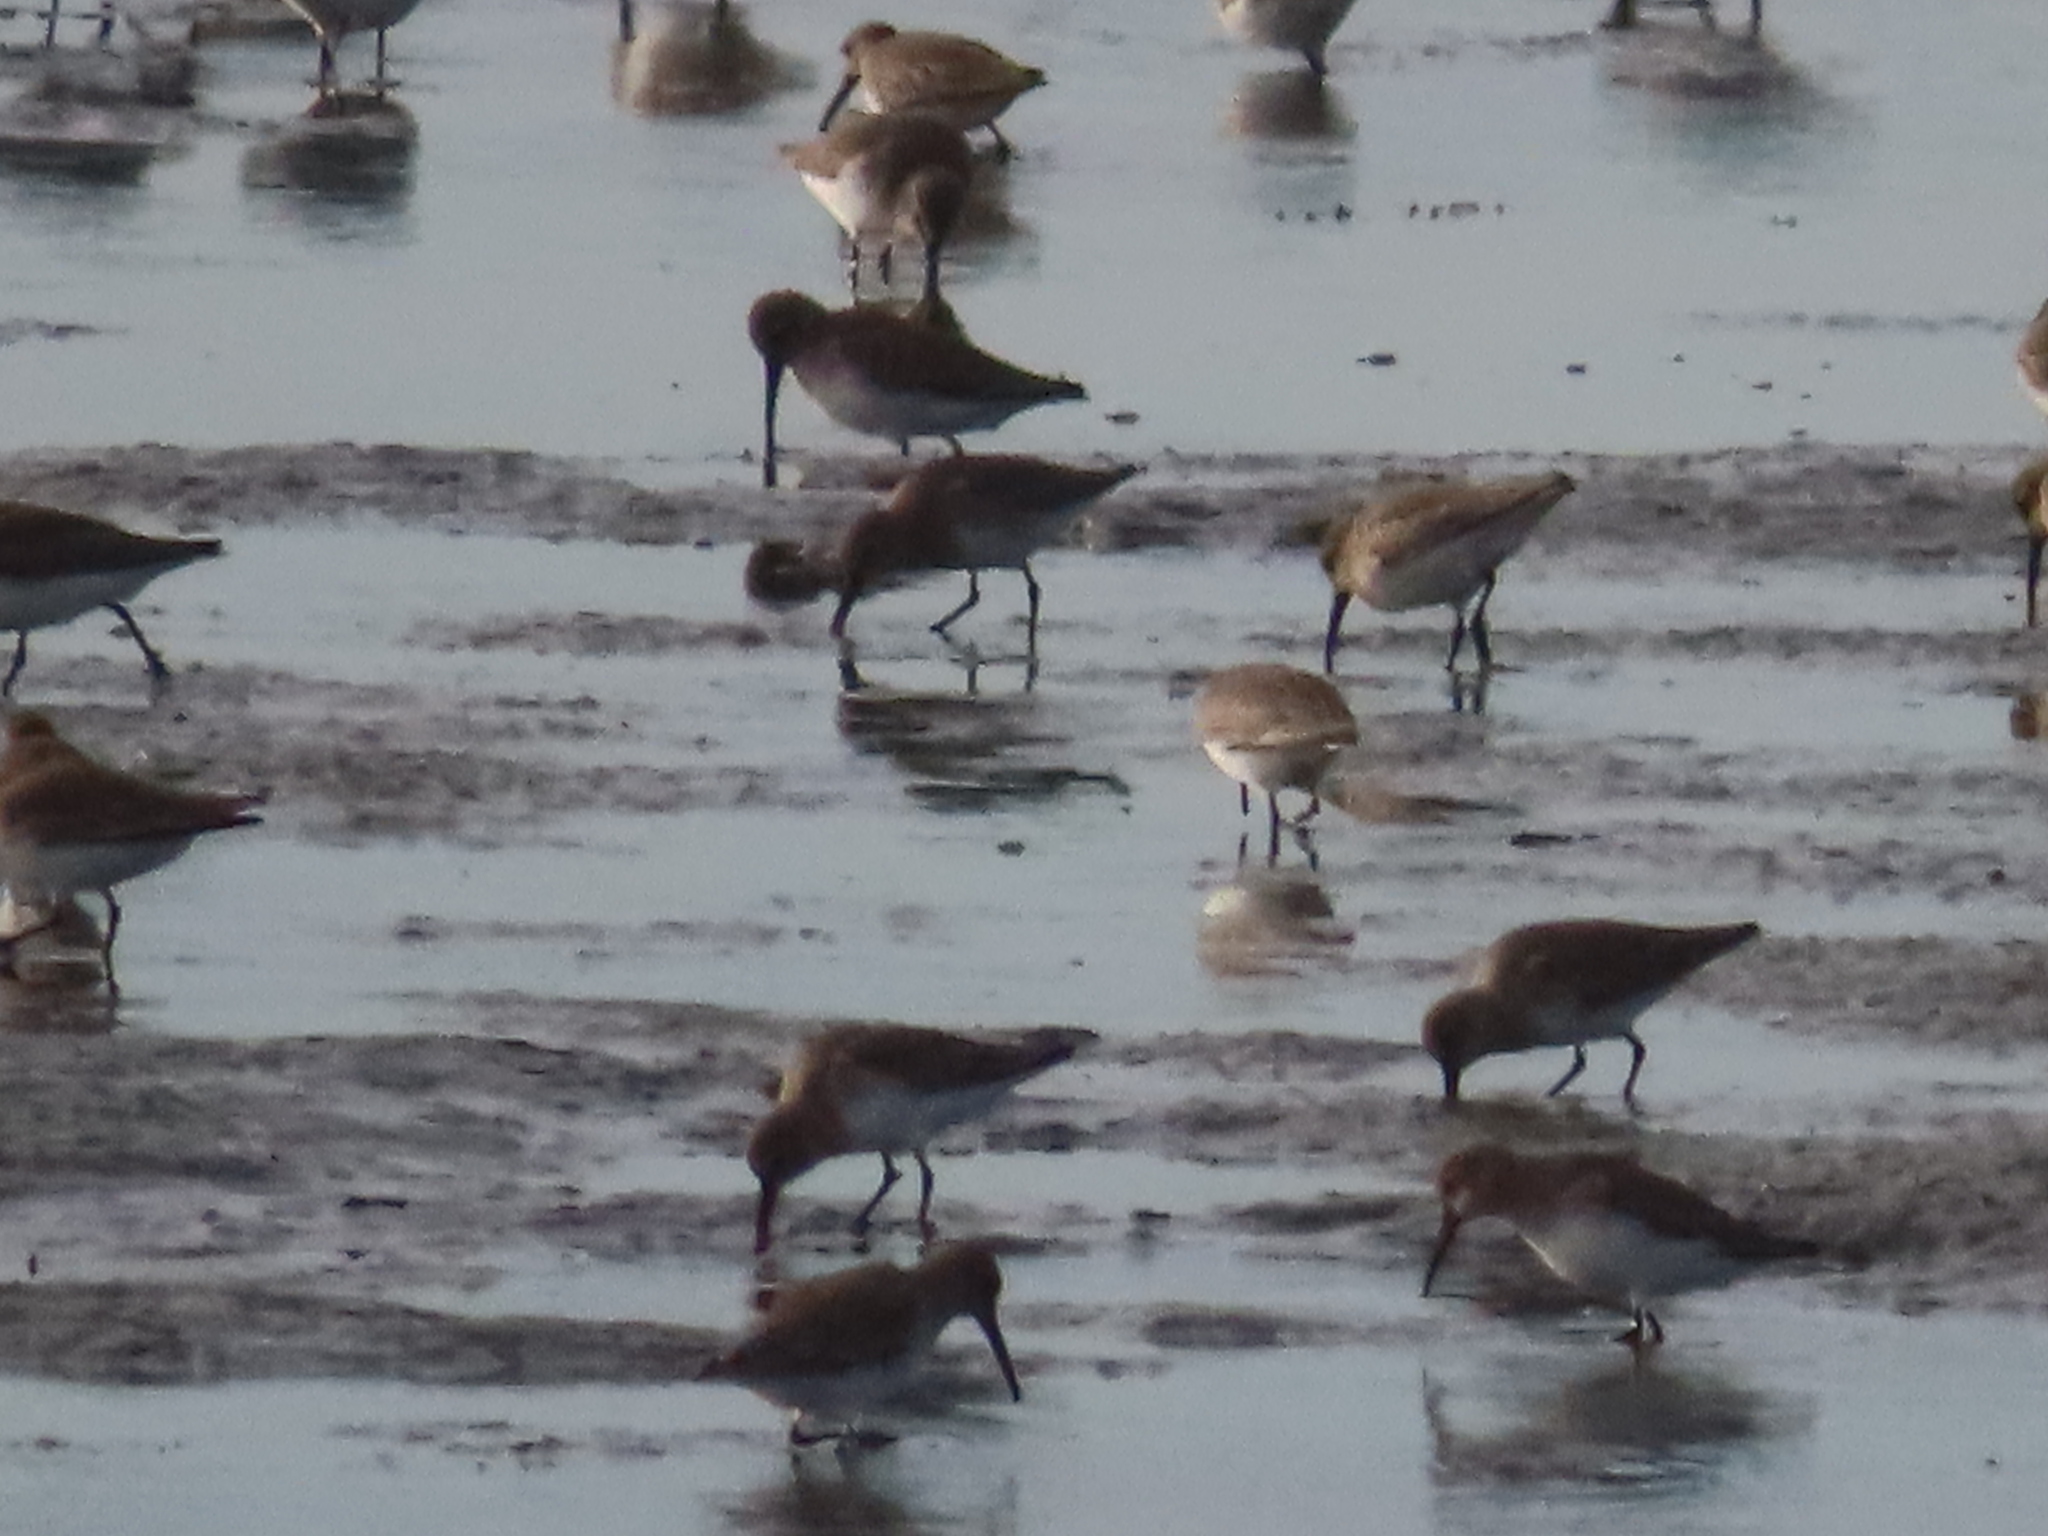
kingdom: Animalia
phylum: Chordata
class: Aves
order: Charadriiformes
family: Scolopacidae
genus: Calidris
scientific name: Calidris alpina
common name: Dunlin
